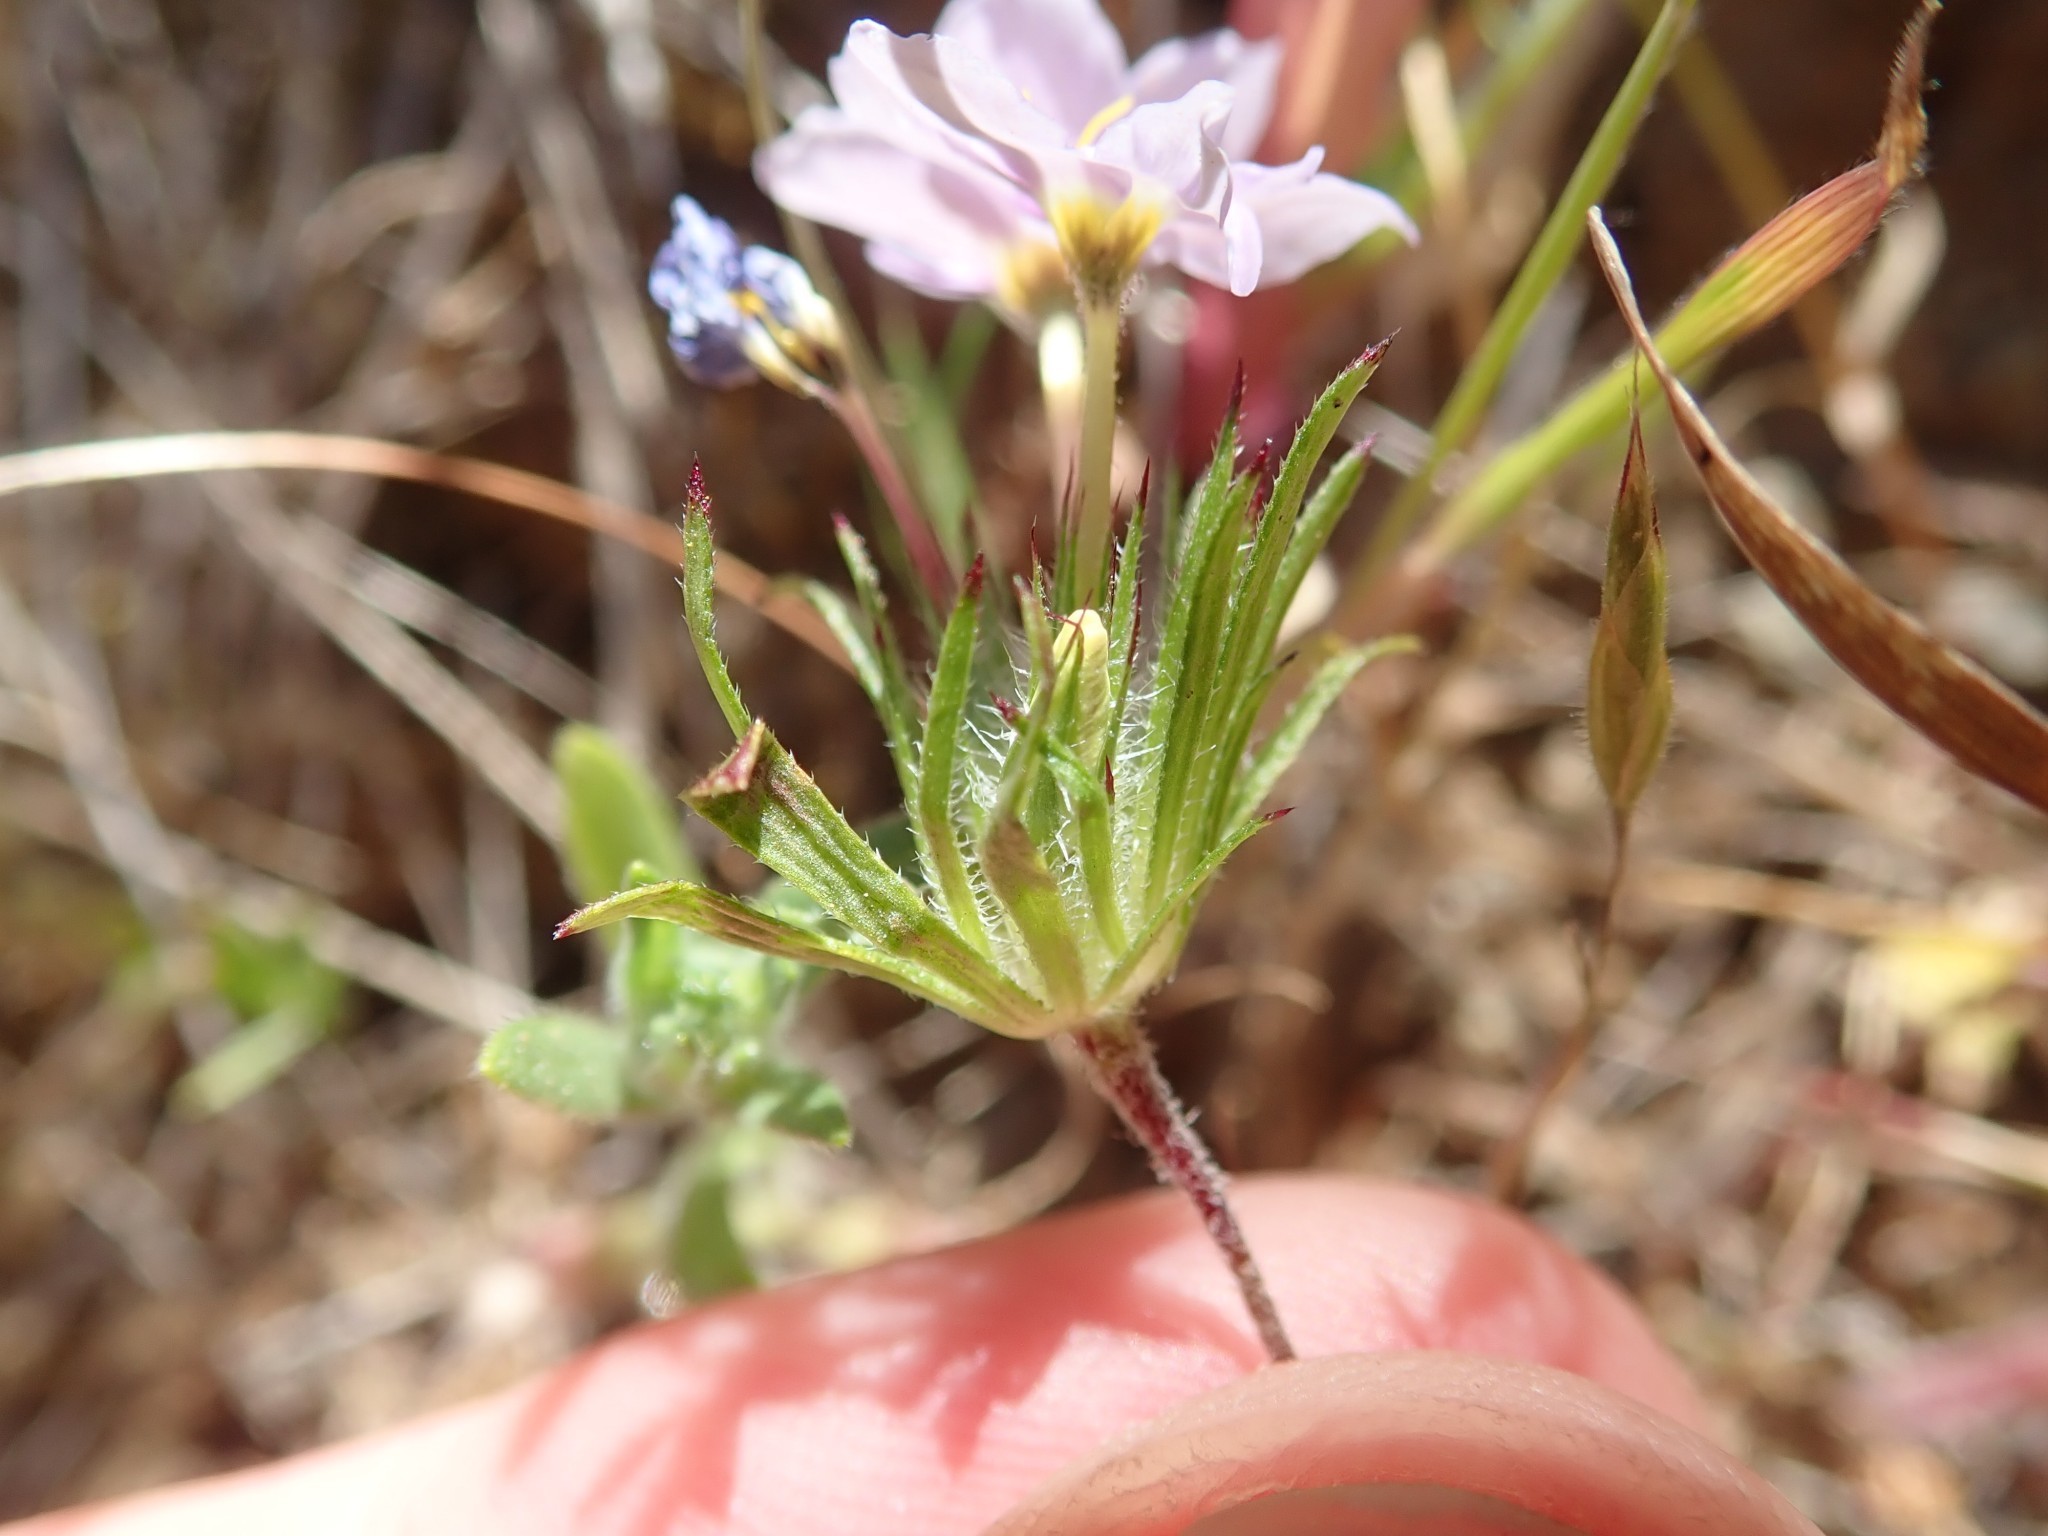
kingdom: Plantae
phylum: Tracheophyta
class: Magnoliopsida
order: Ericales
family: Polemoniaceae
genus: Leptosiphon
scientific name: Leptosiphon androsaceus
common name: False babystars
